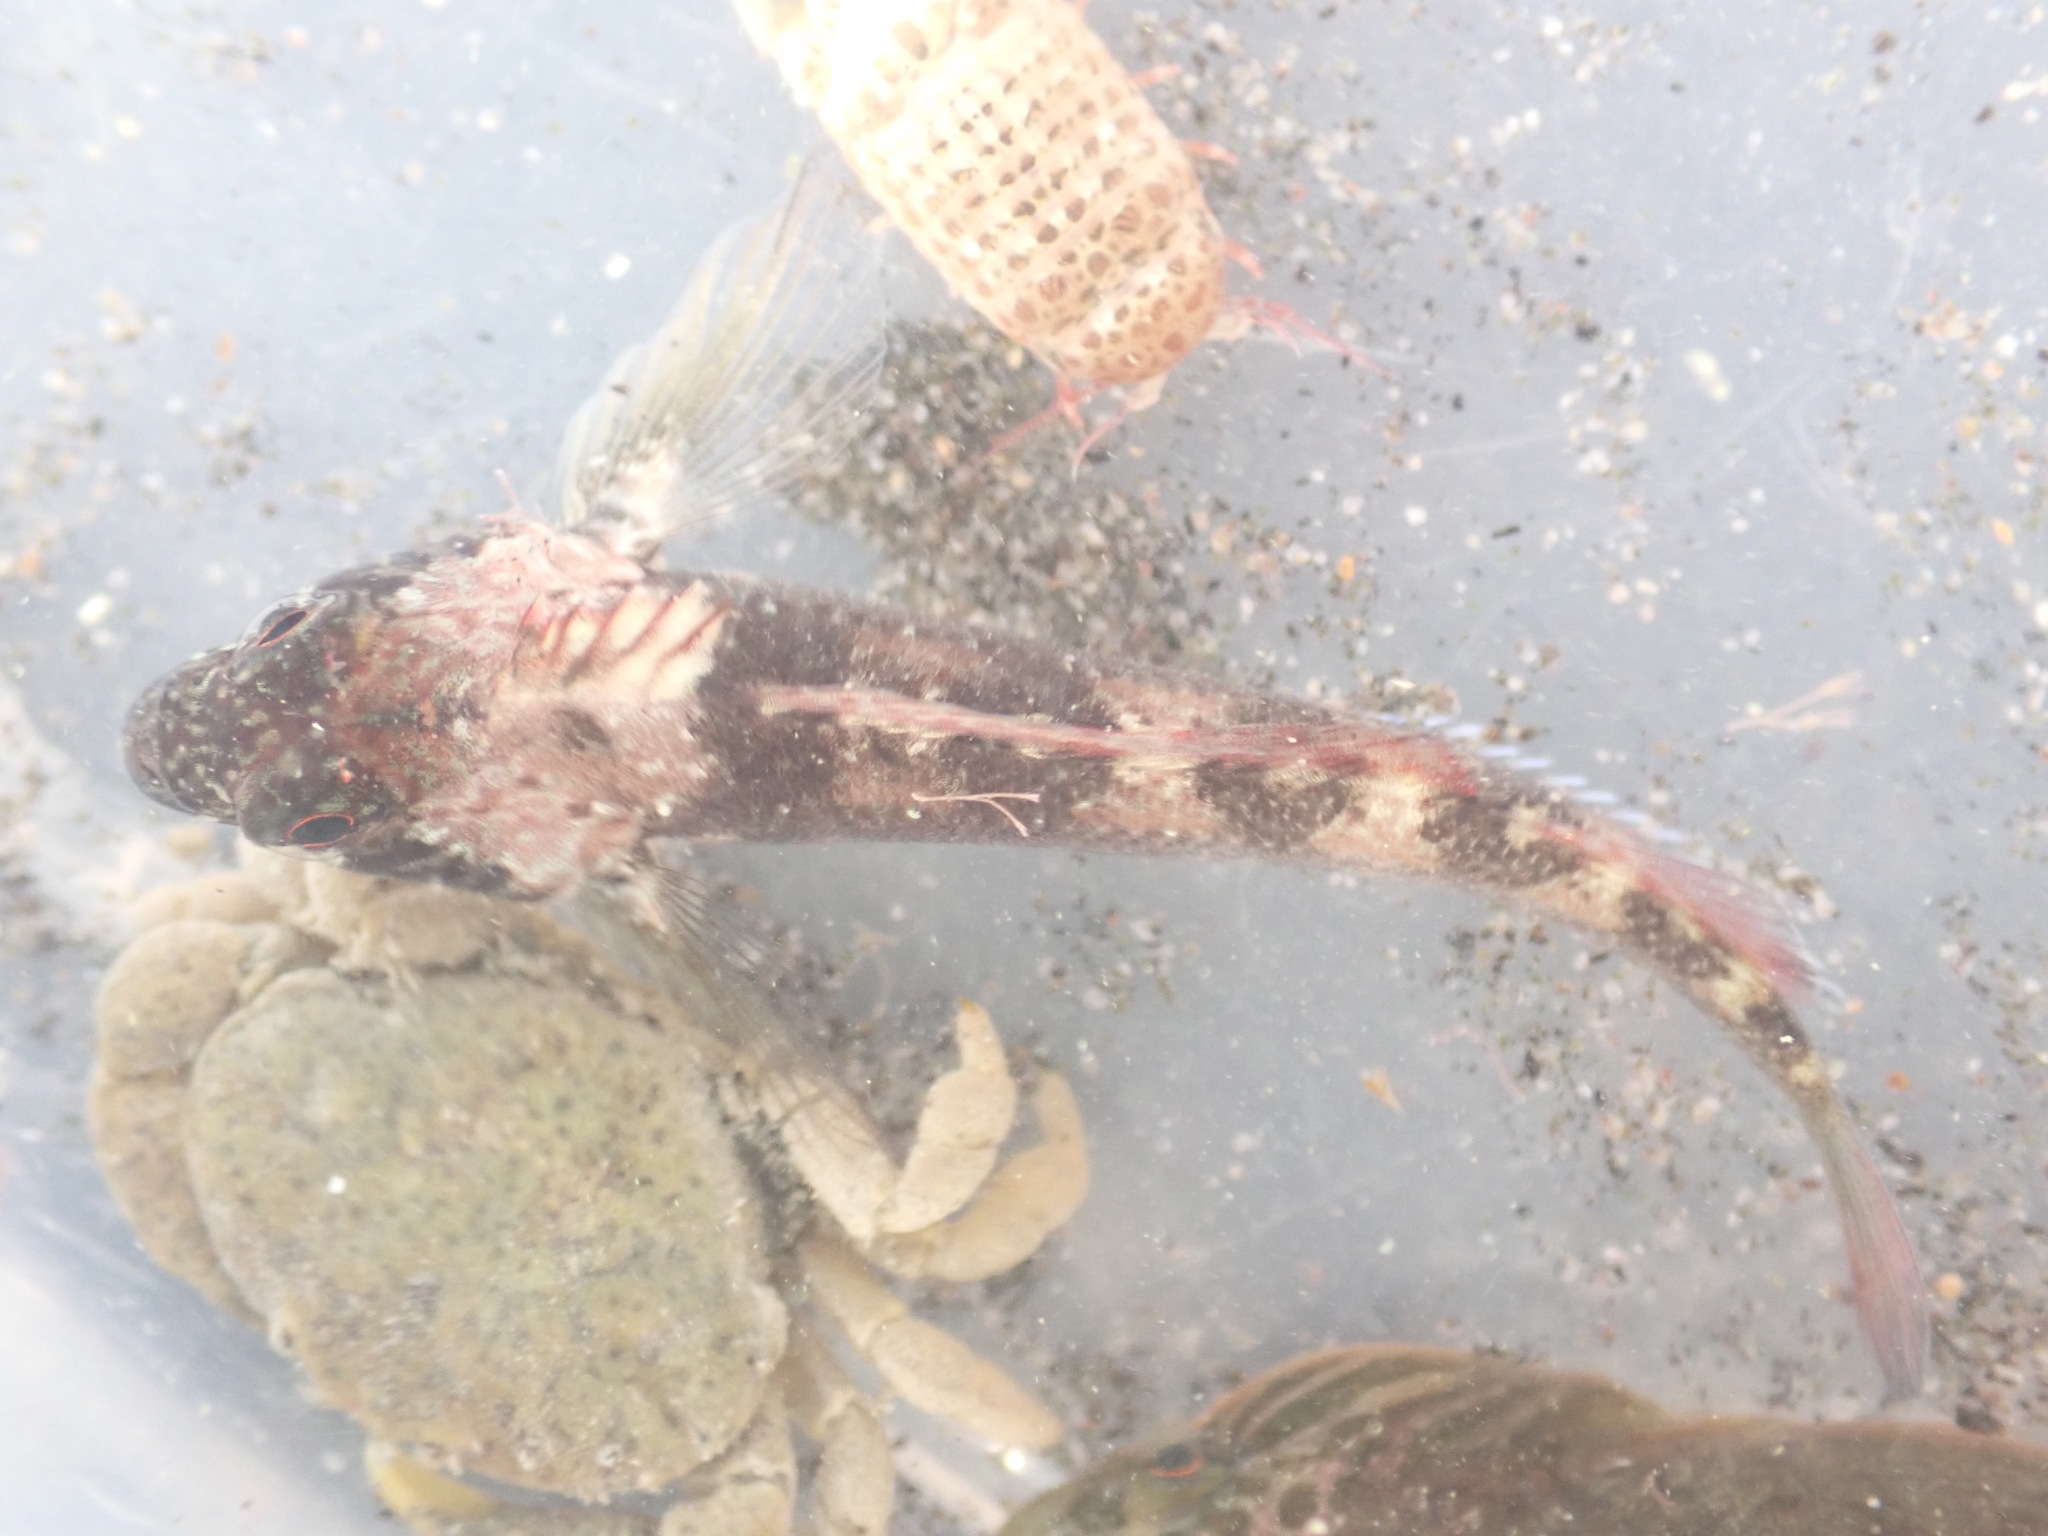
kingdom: Animalia
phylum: Chordata
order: Perciformes
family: Tripterygiidae
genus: Forsterygion
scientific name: Forsterygion lapillum
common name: Common triplefin
